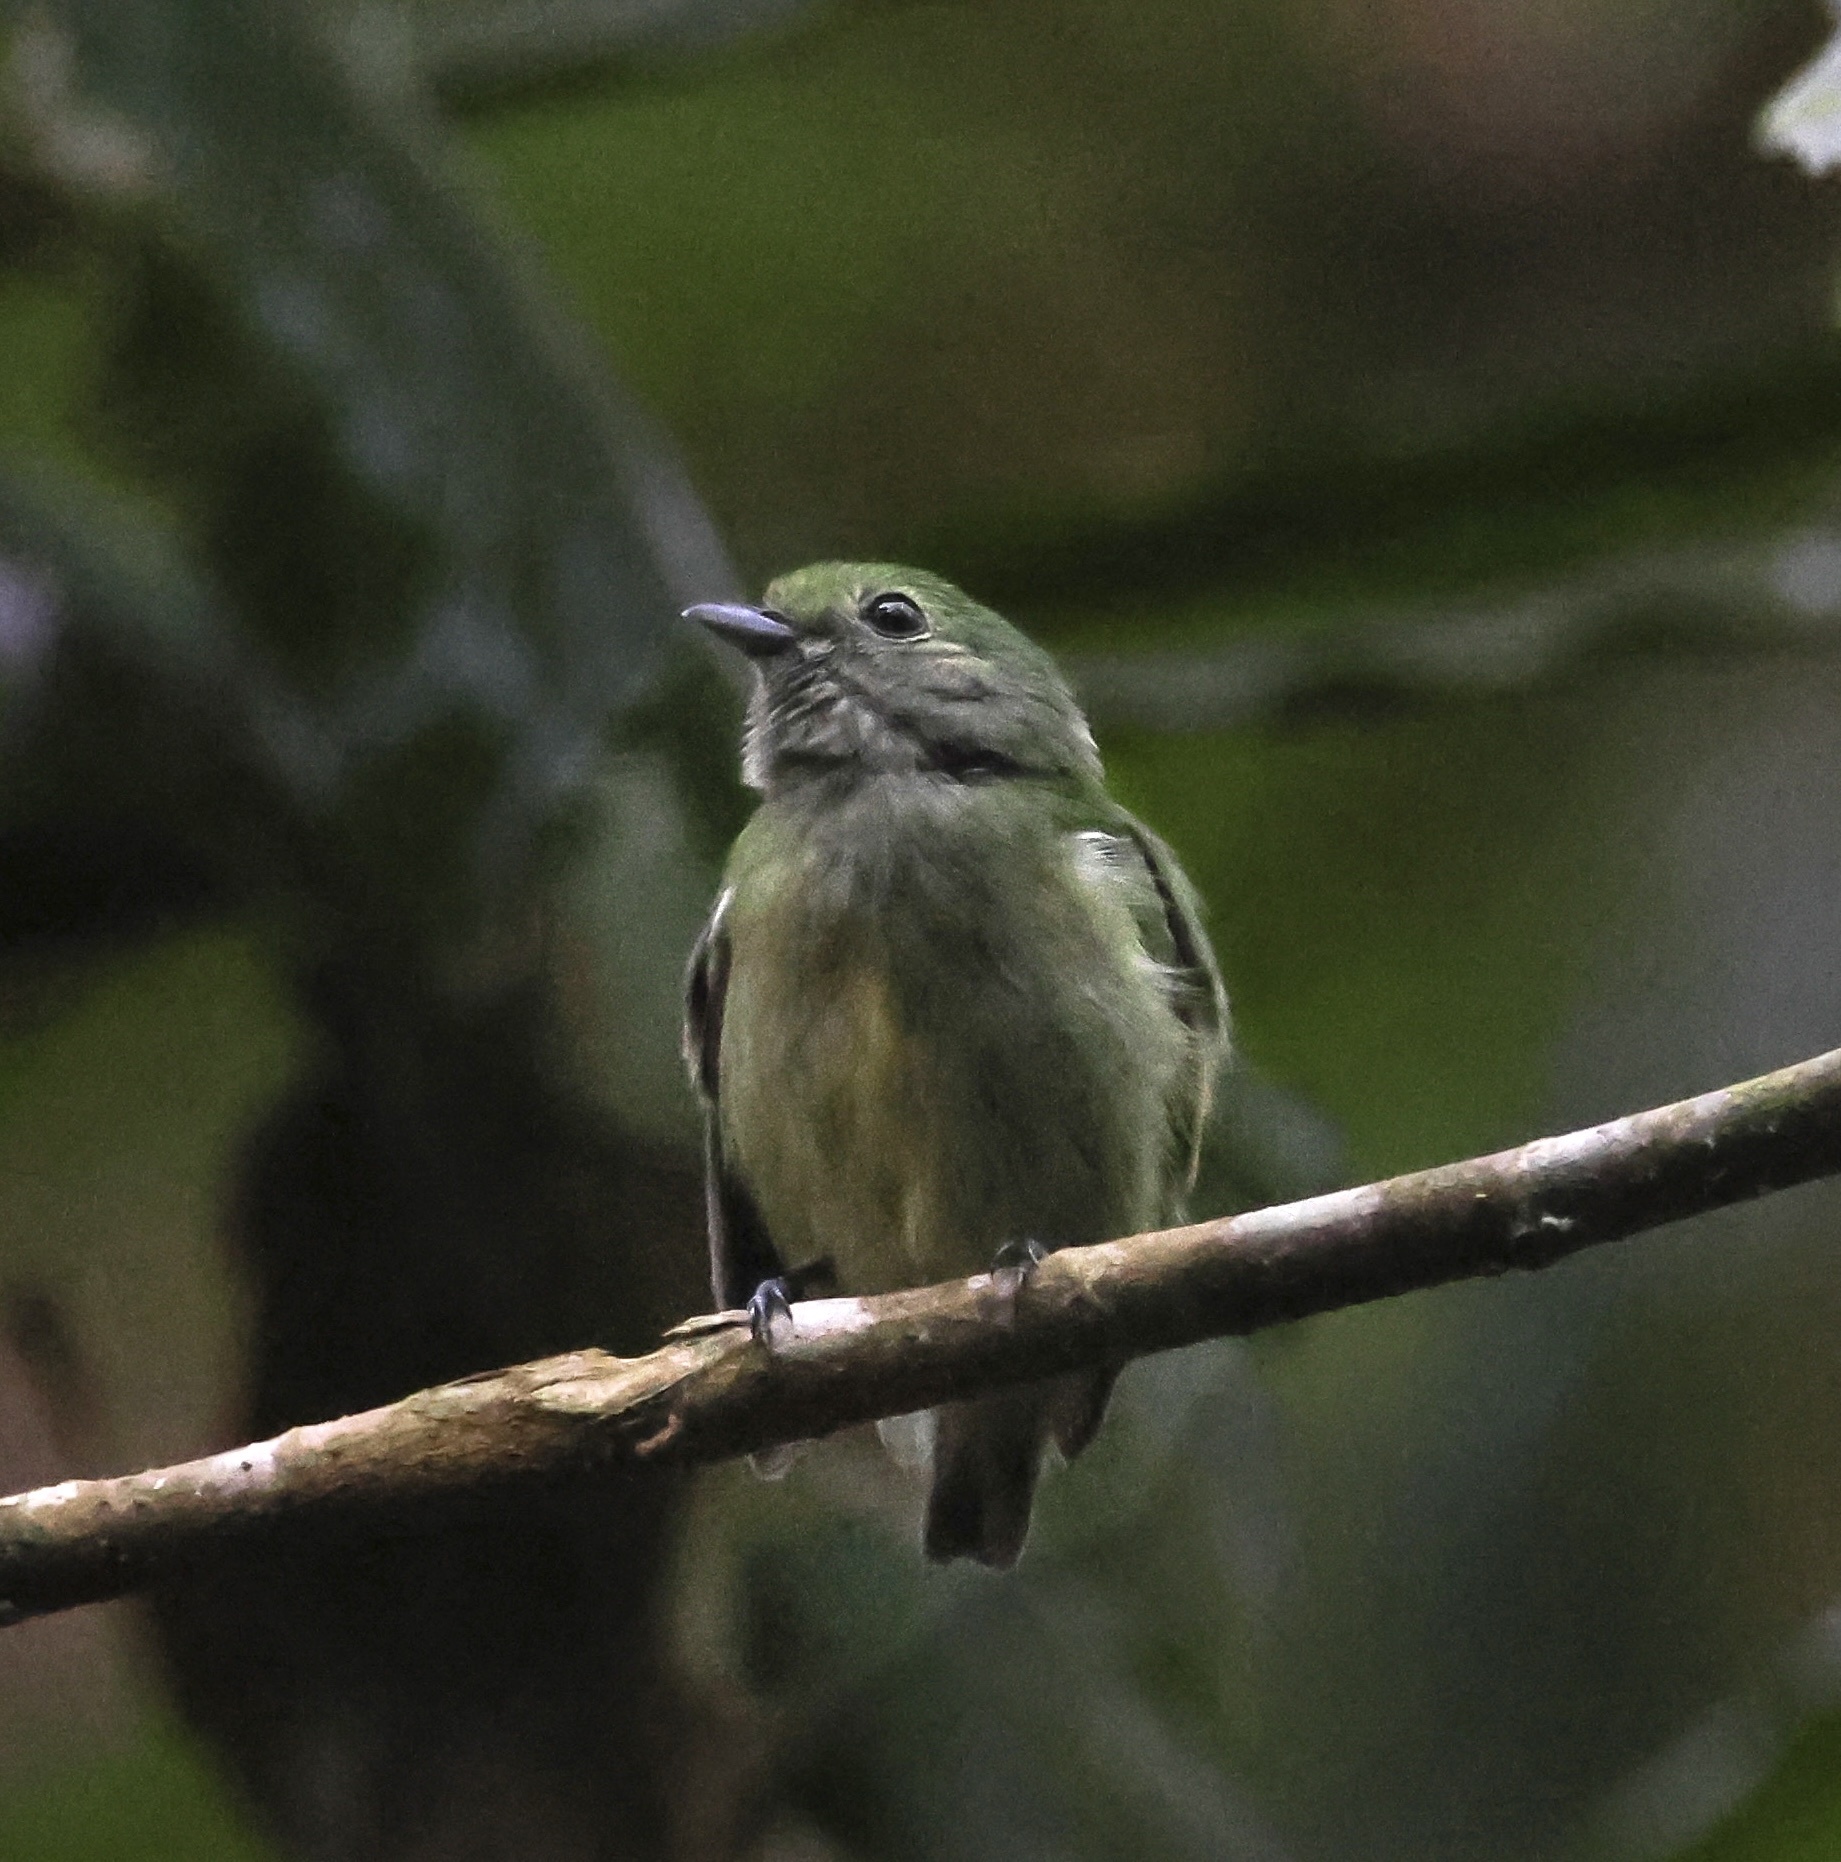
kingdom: Animalia
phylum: Chordata
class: Aves
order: Passeriformes
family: Pipridae
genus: Lepidothrix
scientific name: Lepidothrix coronata
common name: Blue-crowned manakin
